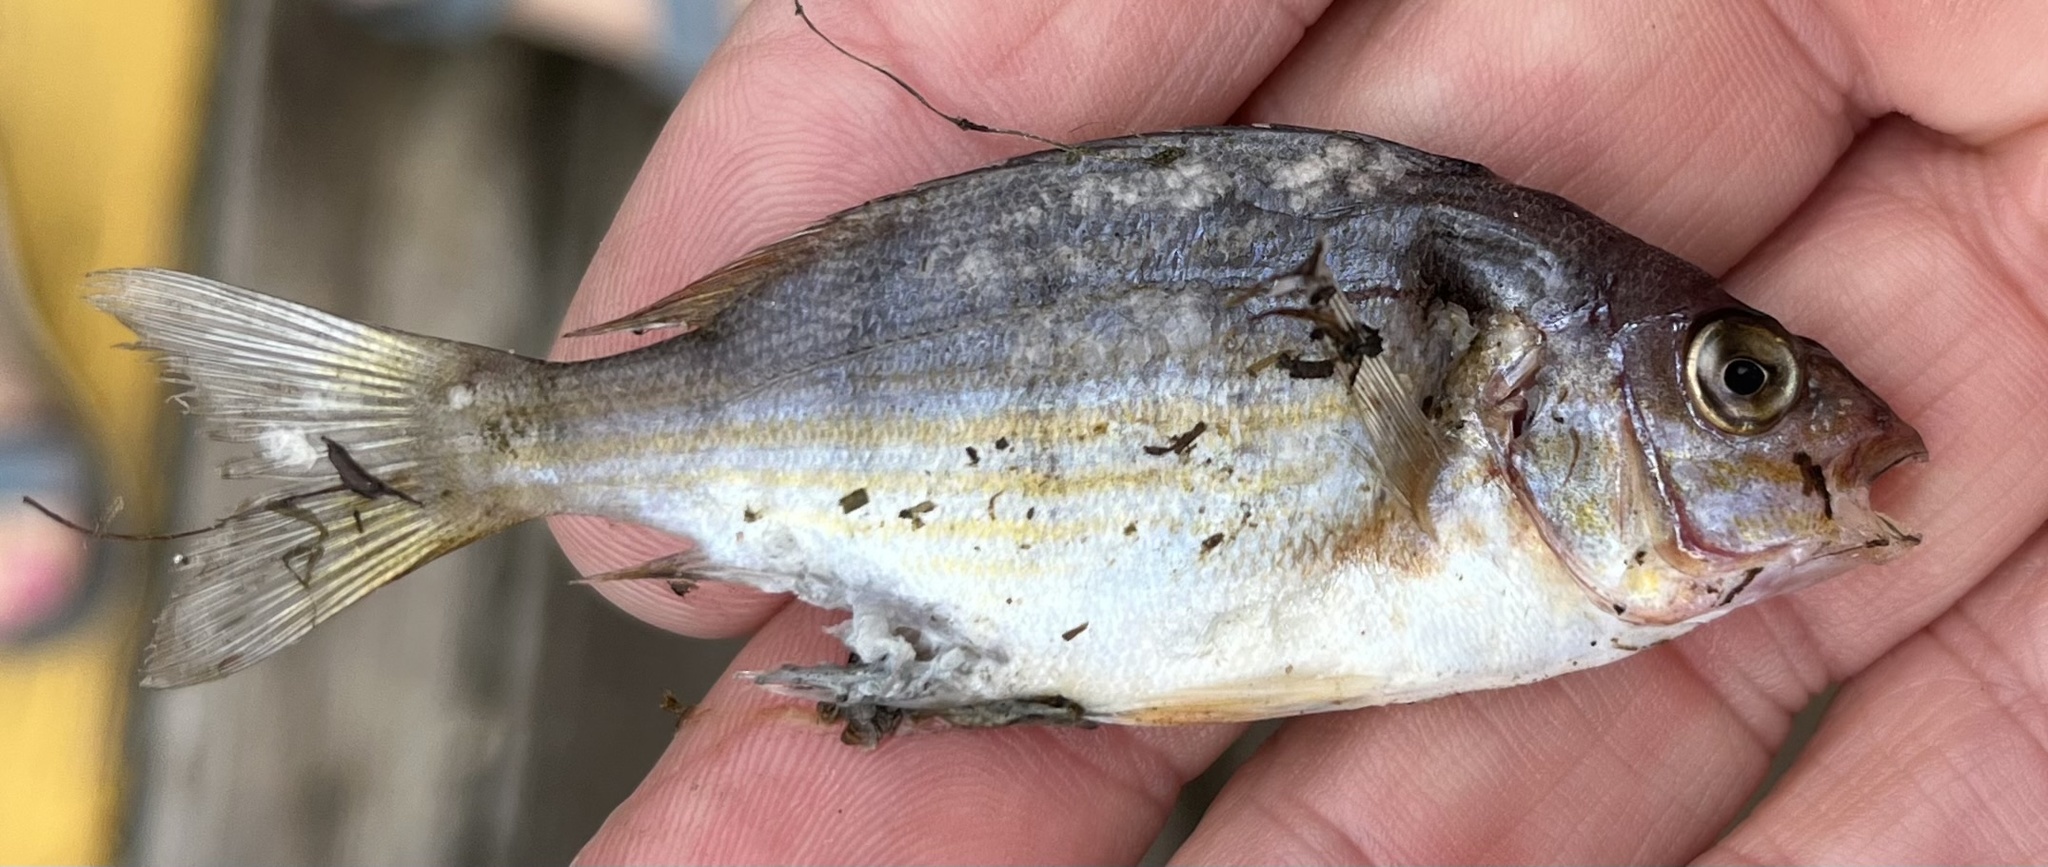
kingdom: Animalia
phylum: Chordata
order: Perciformes
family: Sparidae
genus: Lagodon
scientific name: Lagodon rhomboides
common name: Pinfish
